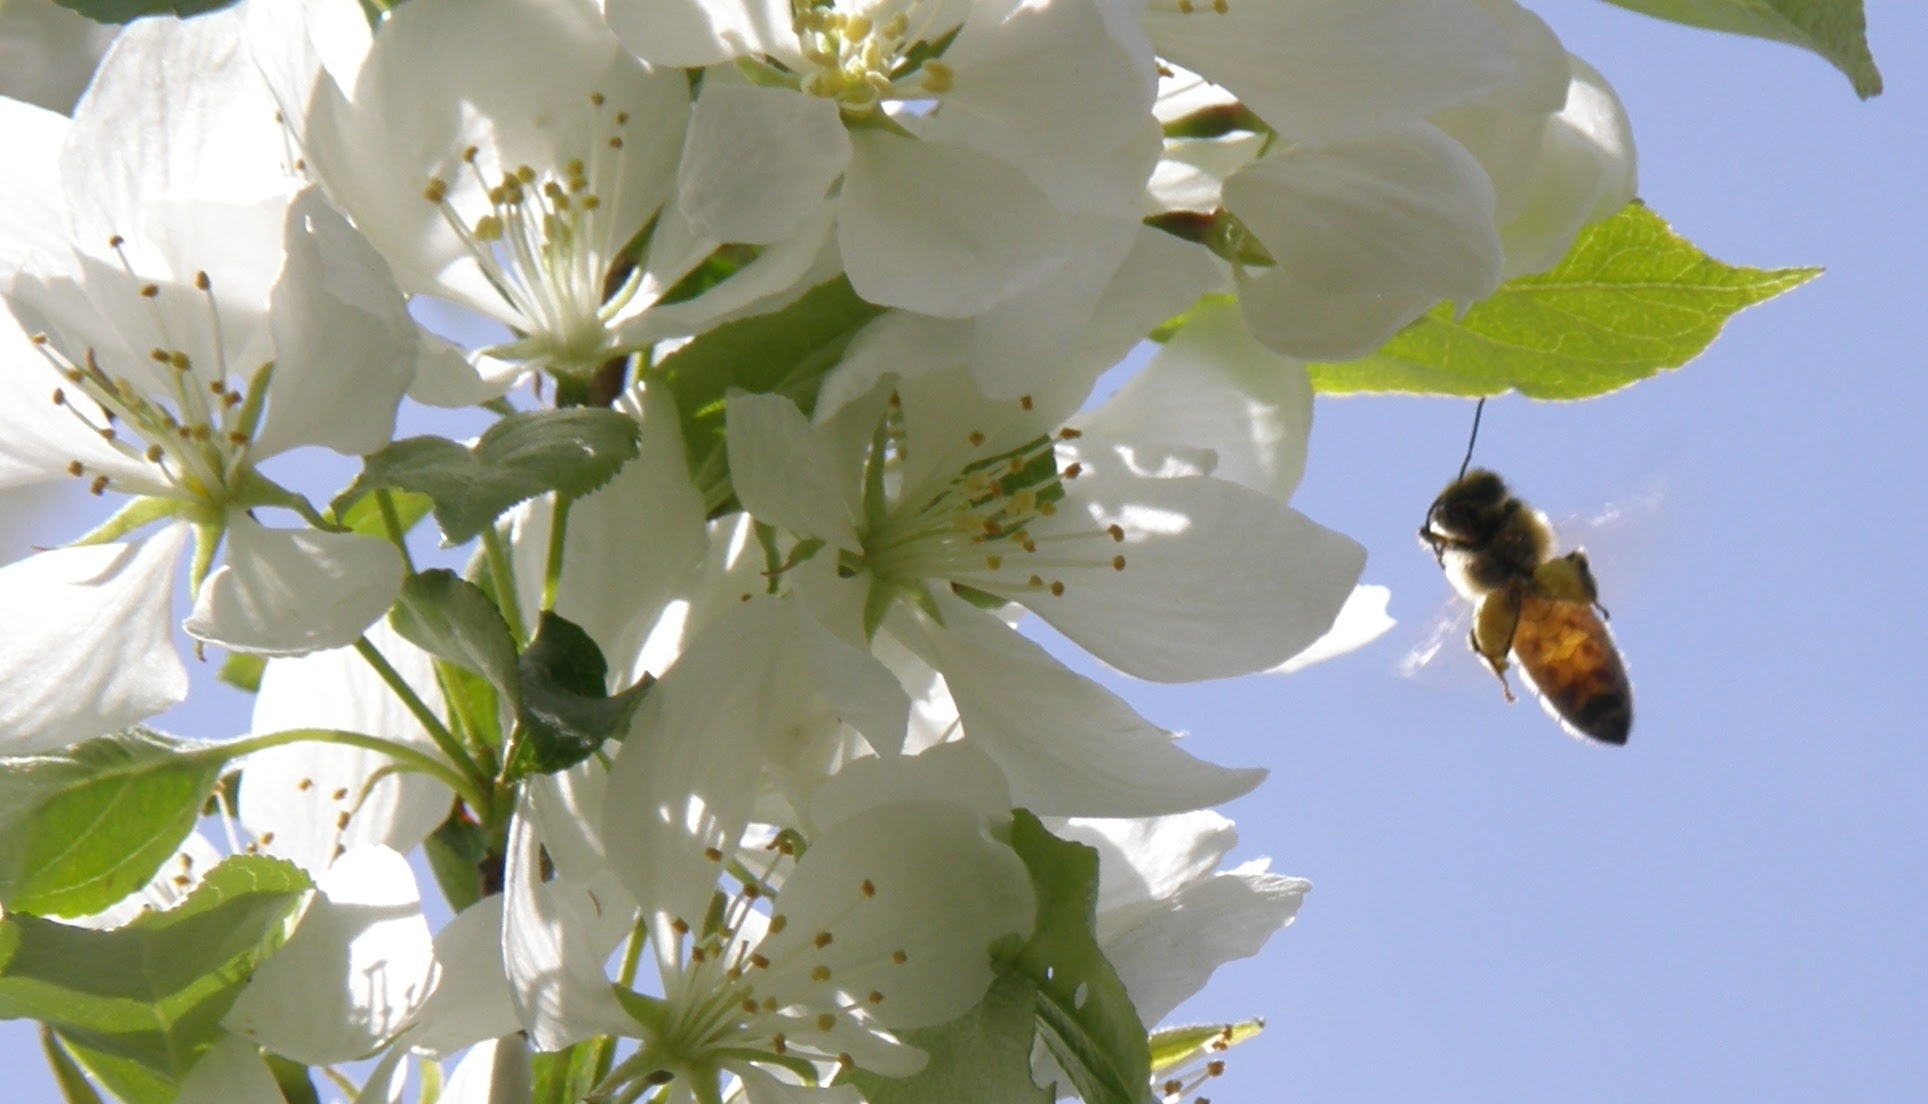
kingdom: Animalia
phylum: Arthropoda
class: Insecta
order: Hymenoptera
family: Apidae
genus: Apis
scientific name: Apis mellifera
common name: Honey bee
